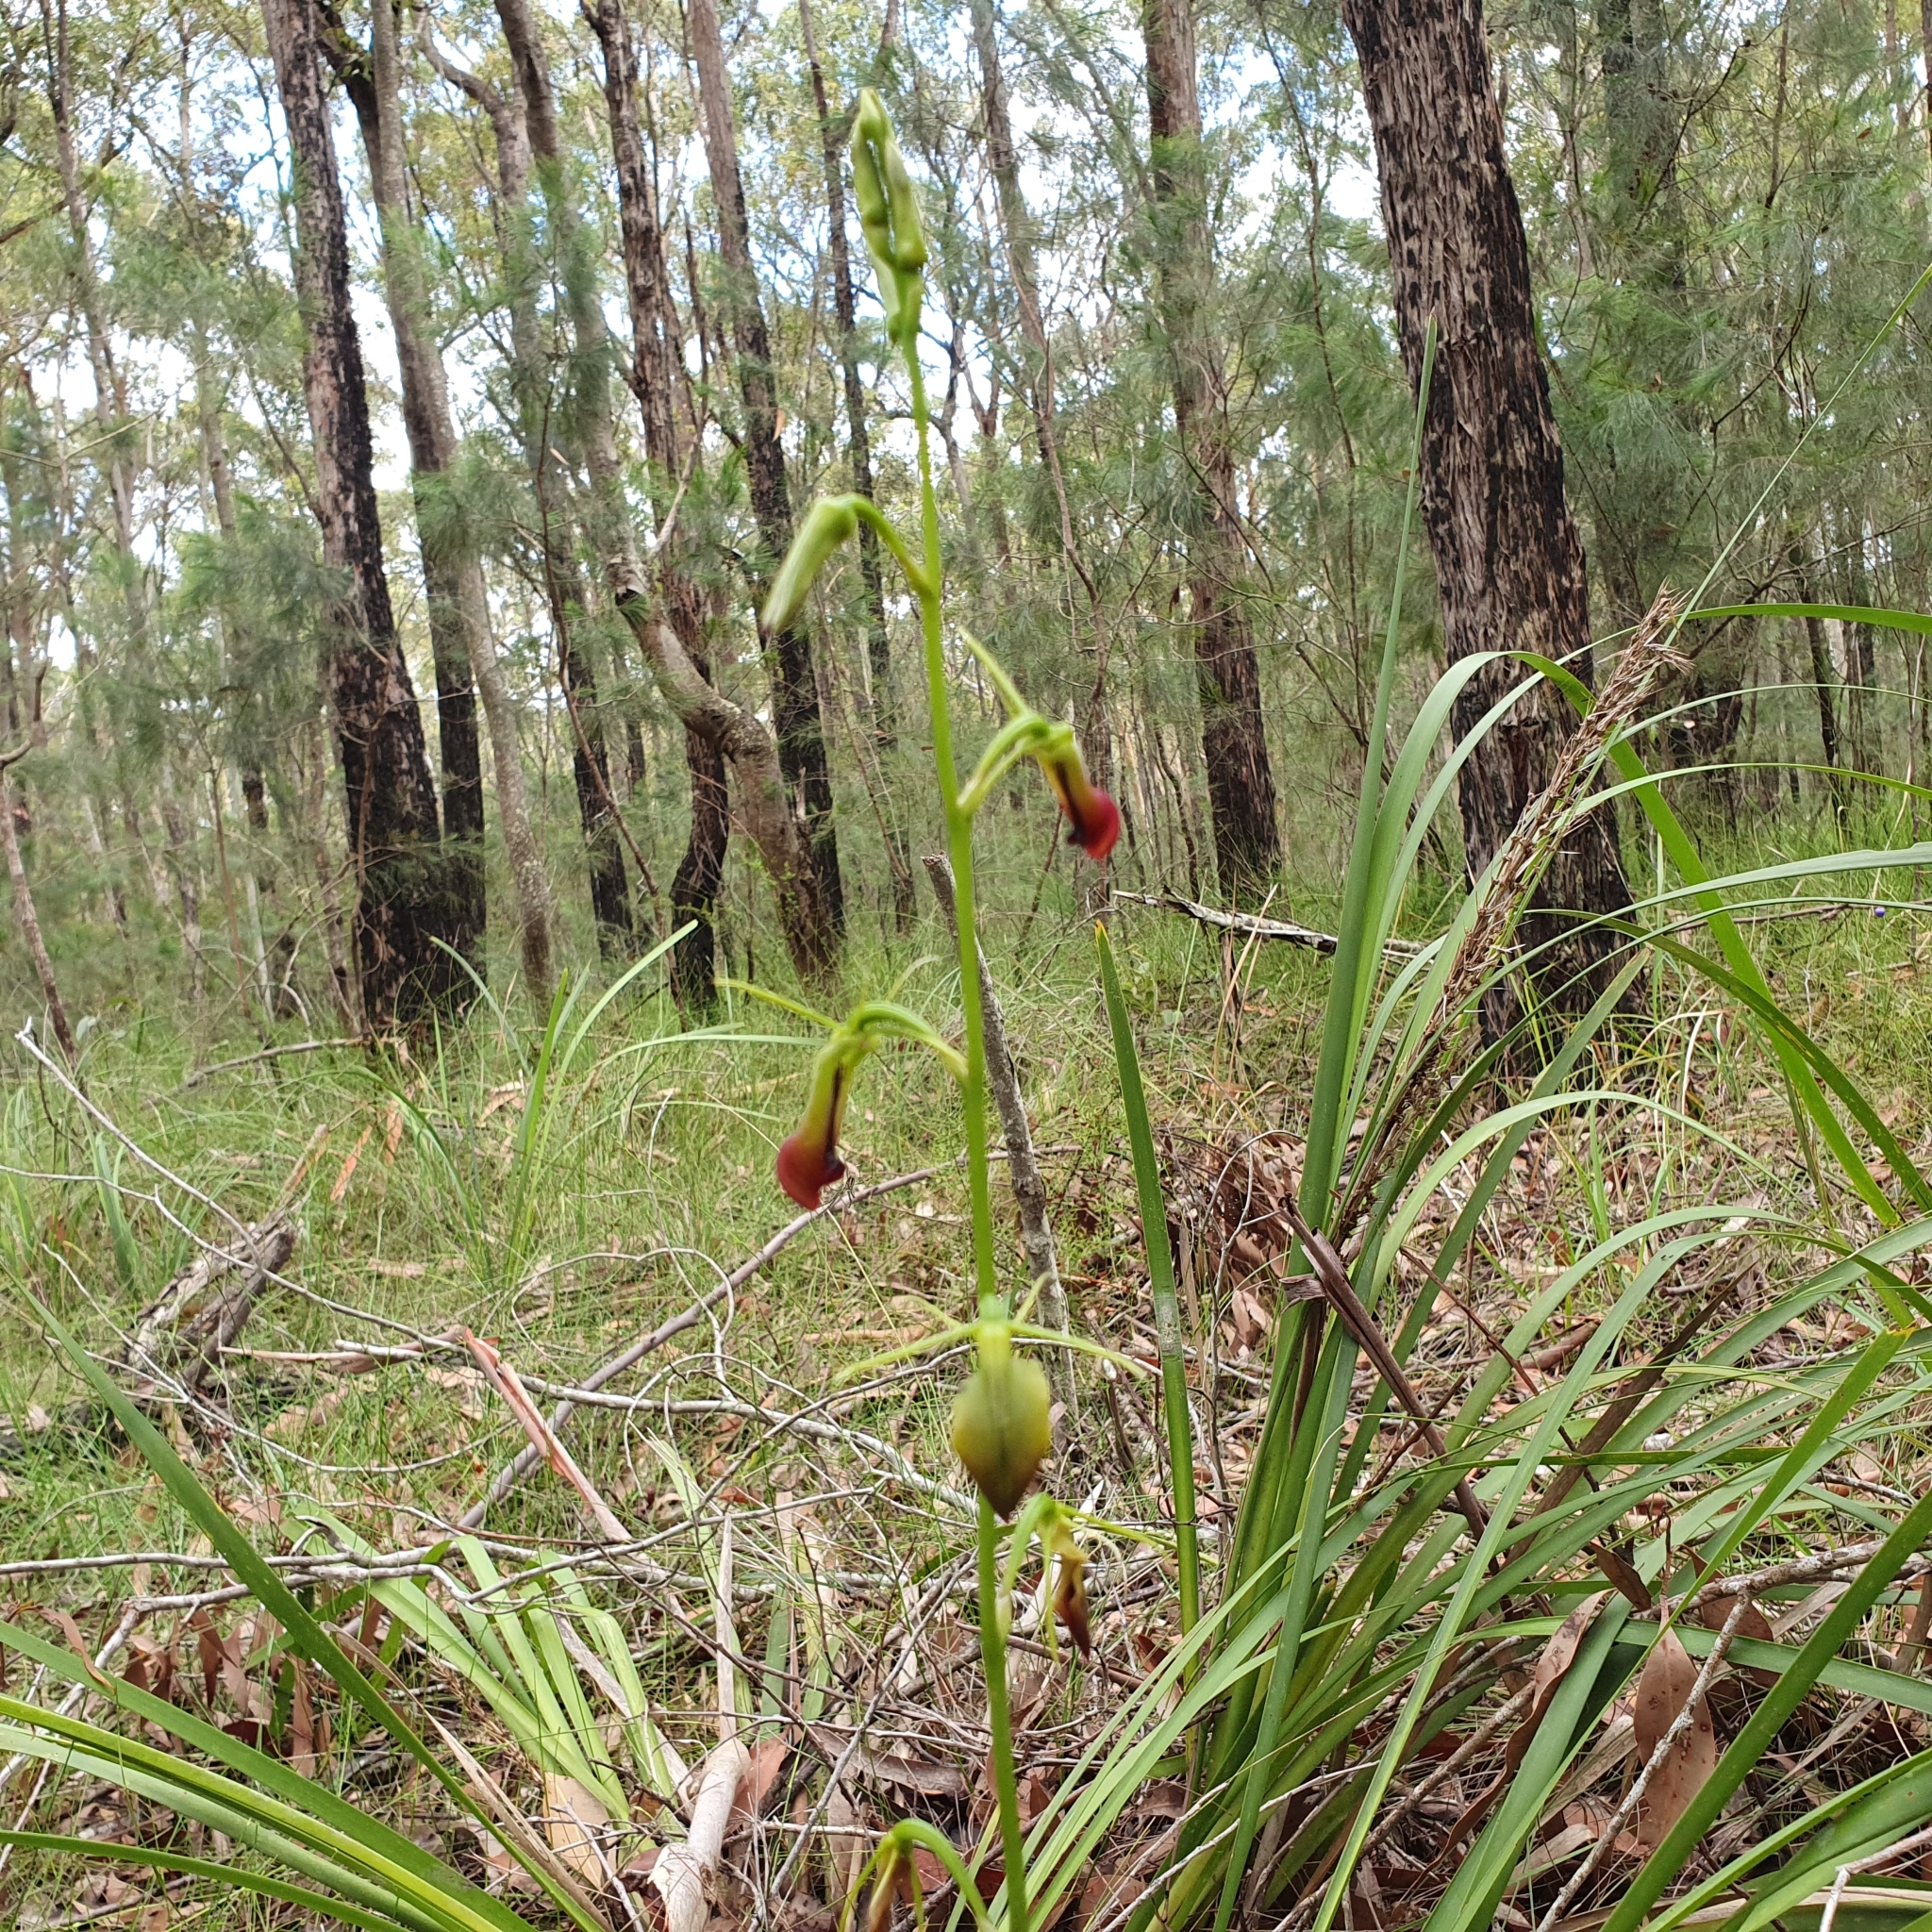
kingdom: Plantae
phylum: Tracheophyta
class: Liliopsida
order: Asparagales
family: Orchidaceae
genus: Cryptostylis
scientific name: Cryptostylis subulata
